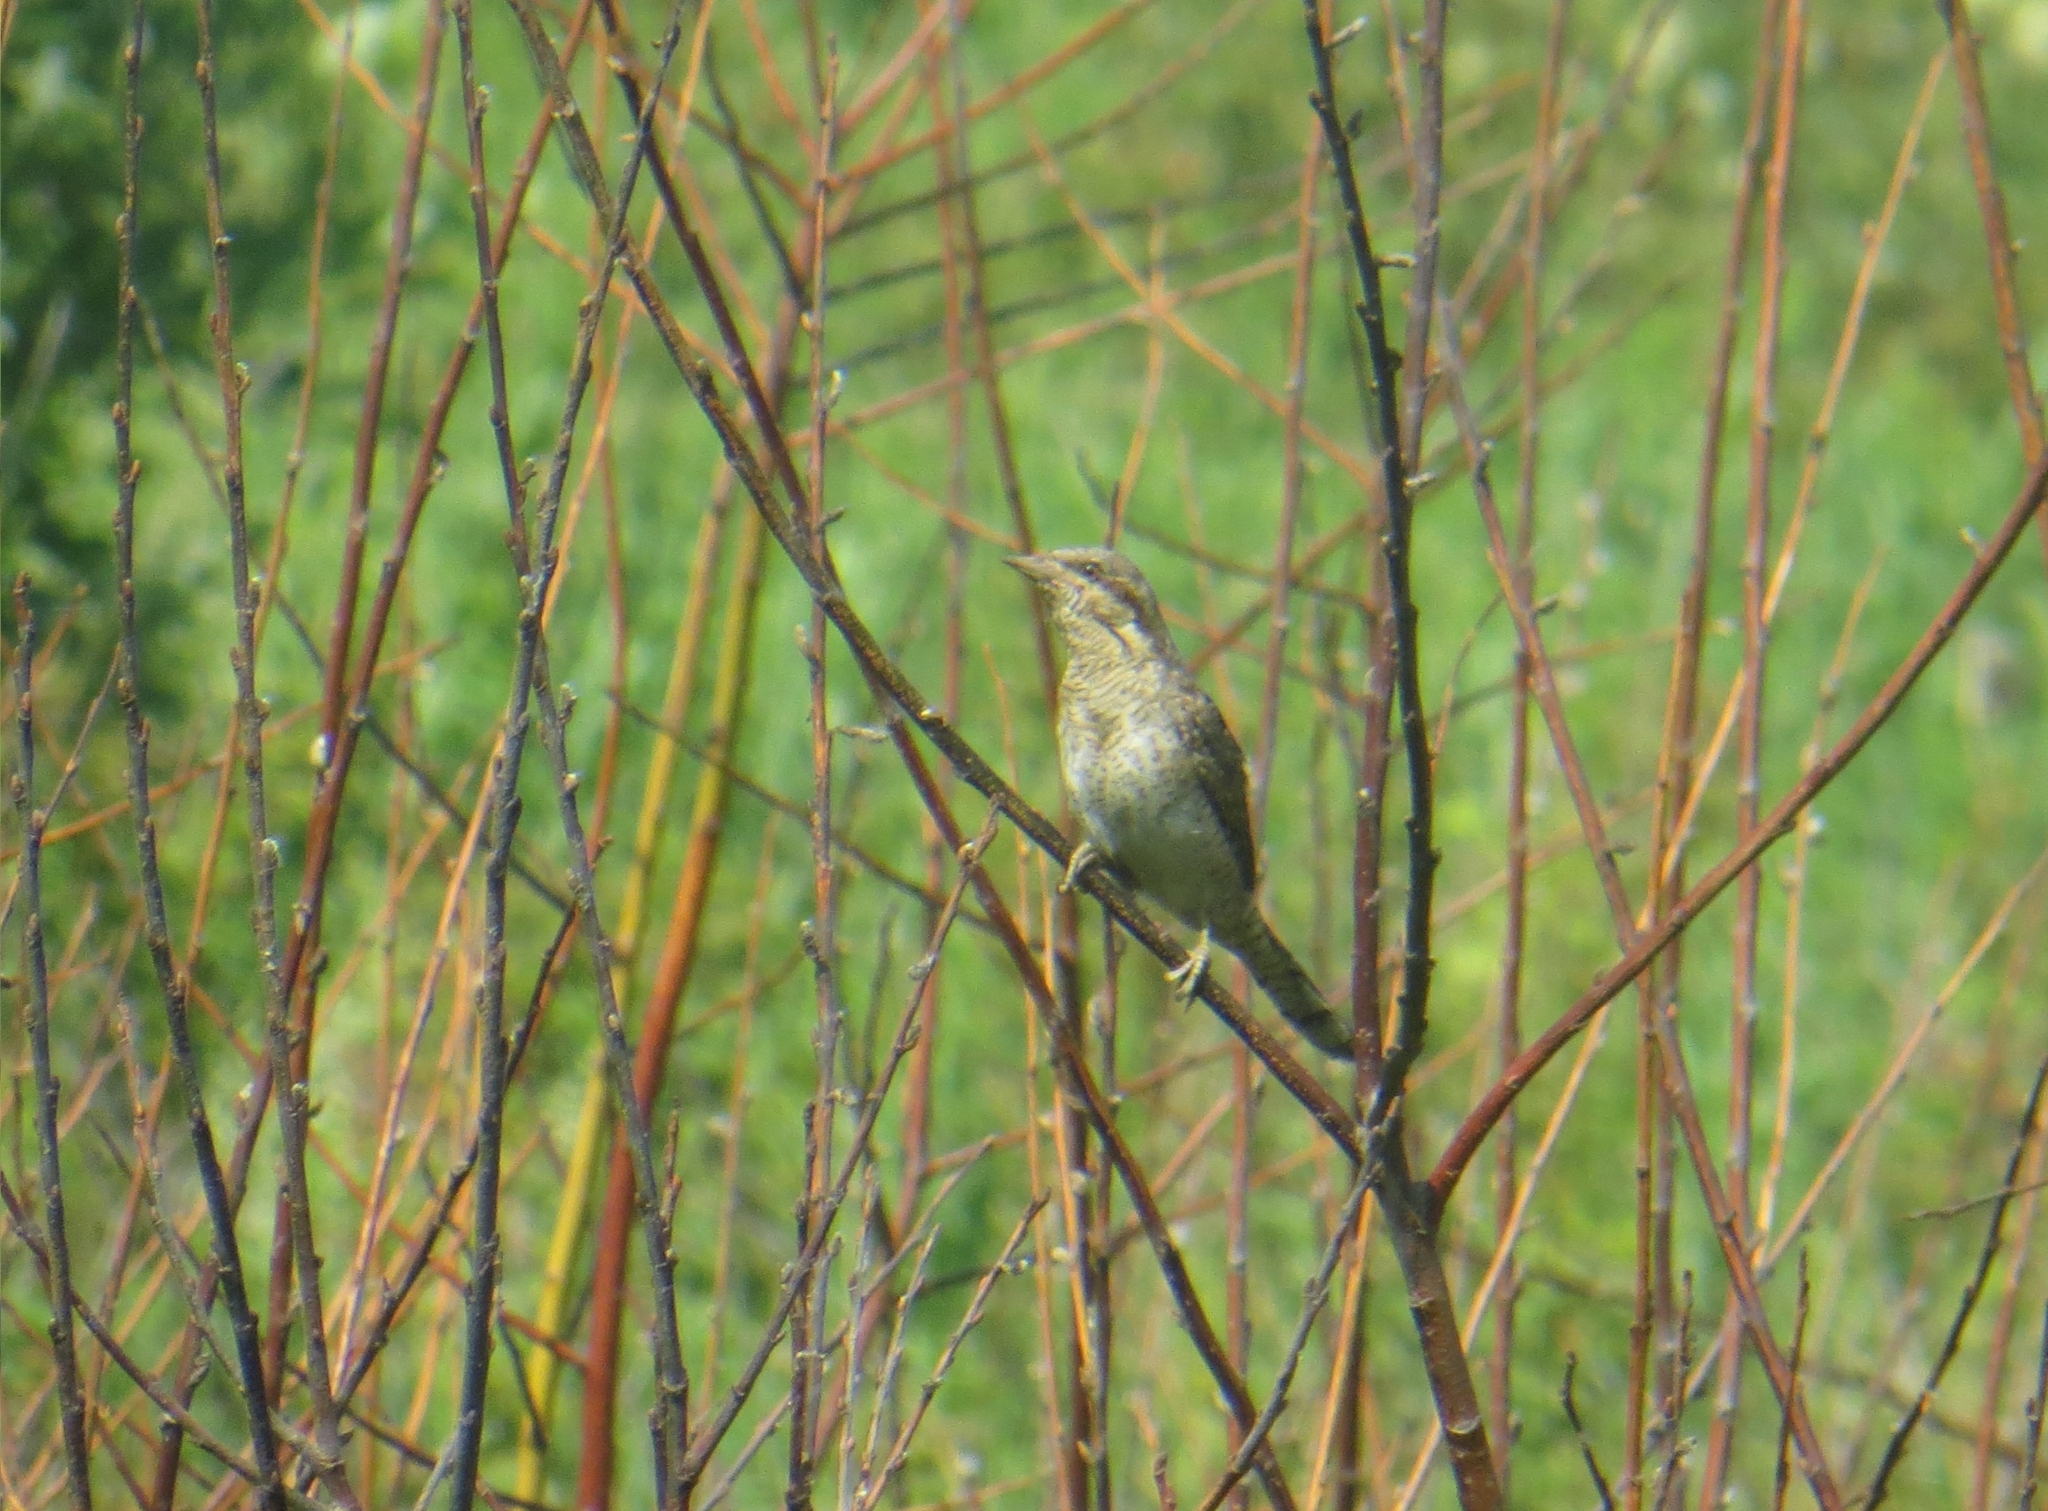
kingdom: Animalia
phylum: Chordata
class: Aves
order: Piciformes
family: Picidae
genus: Jynx
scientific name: Jynx torquilla
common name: Eurasian wryneck
